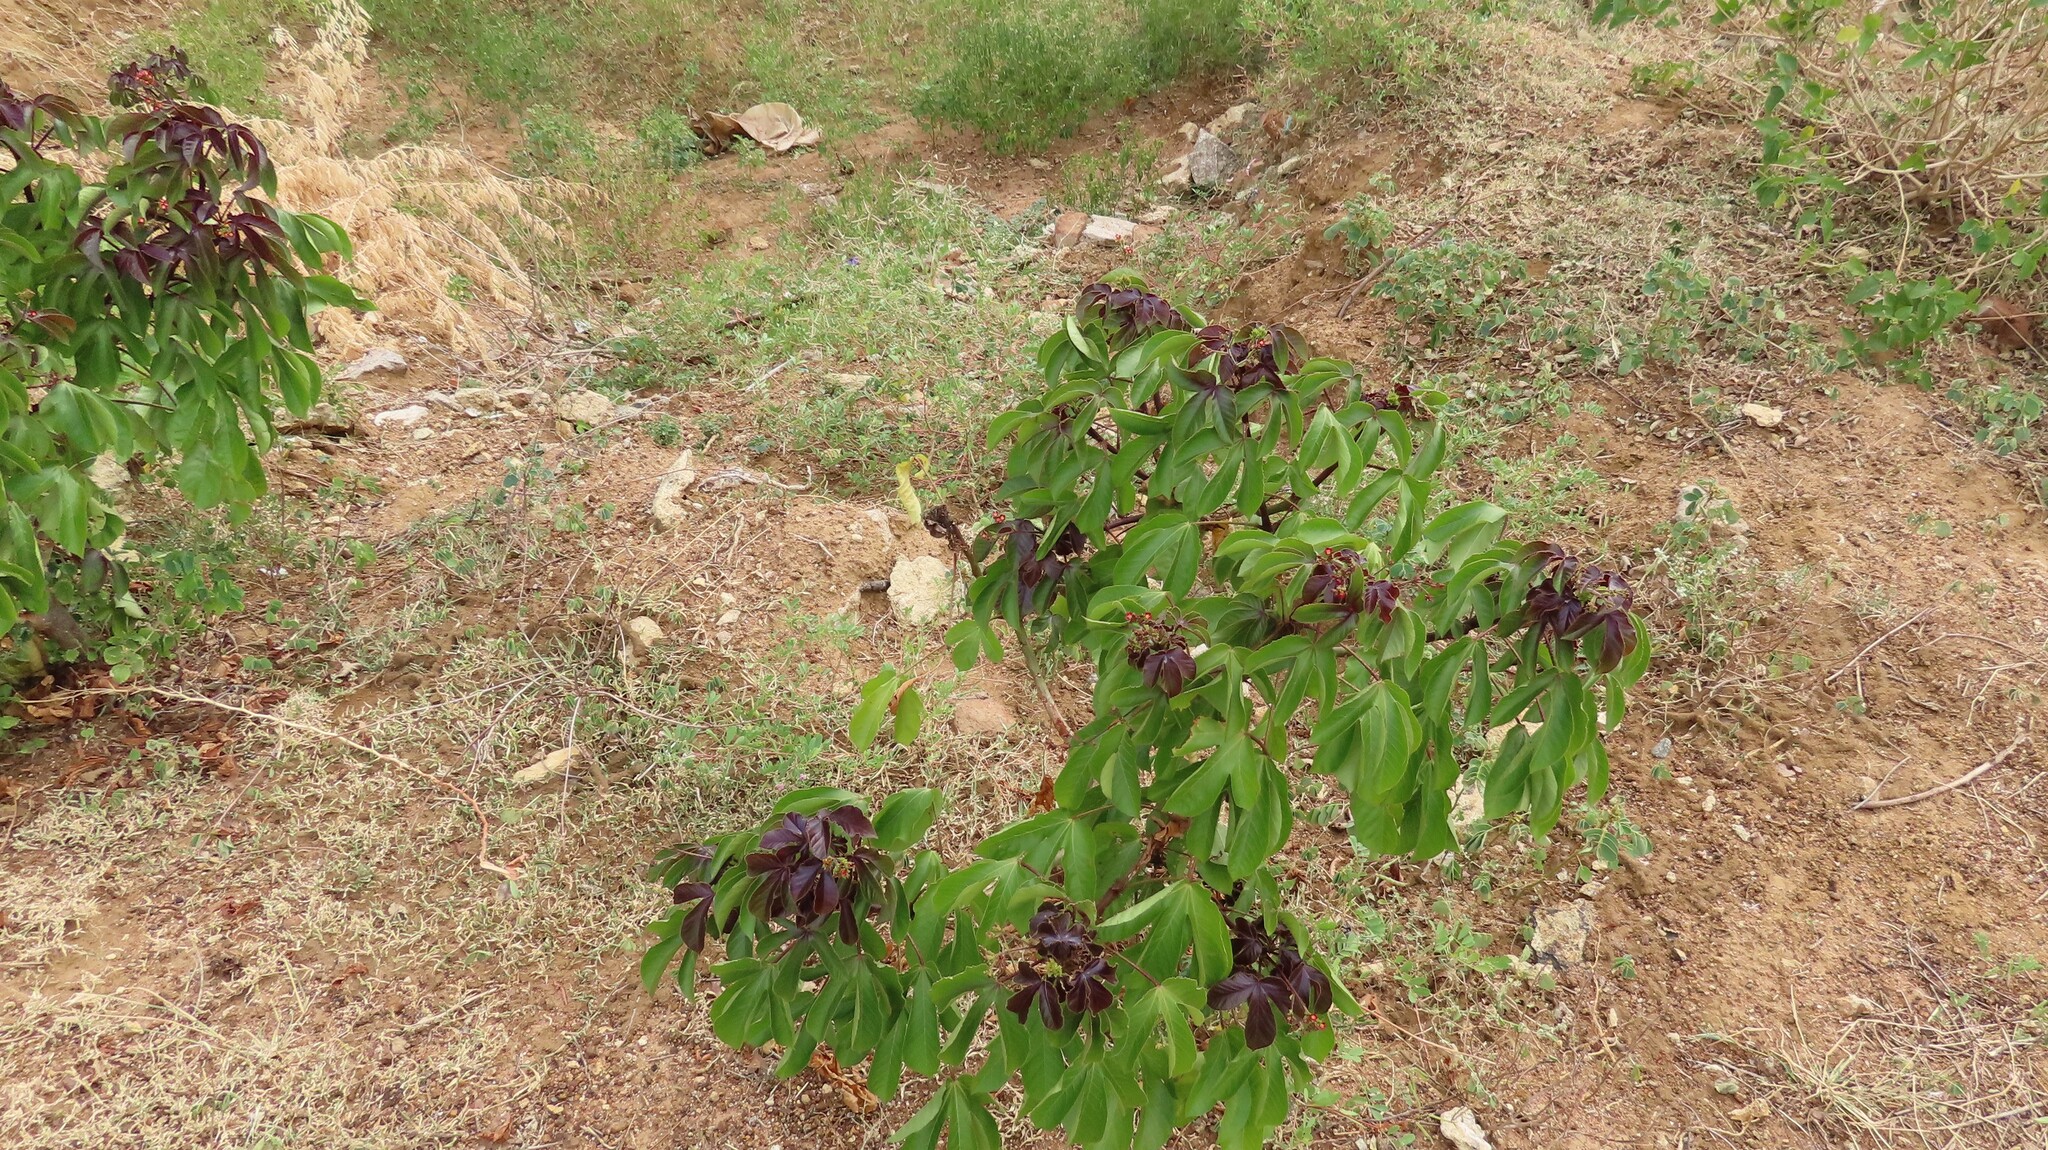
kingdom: Plantae
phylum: Tracheophyta
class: Magnoliopsida
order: Malpighiales
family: Euphorbiaceae
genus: Jatropha
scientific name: Jatropha gossypiifolia
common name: Bellyache bush
